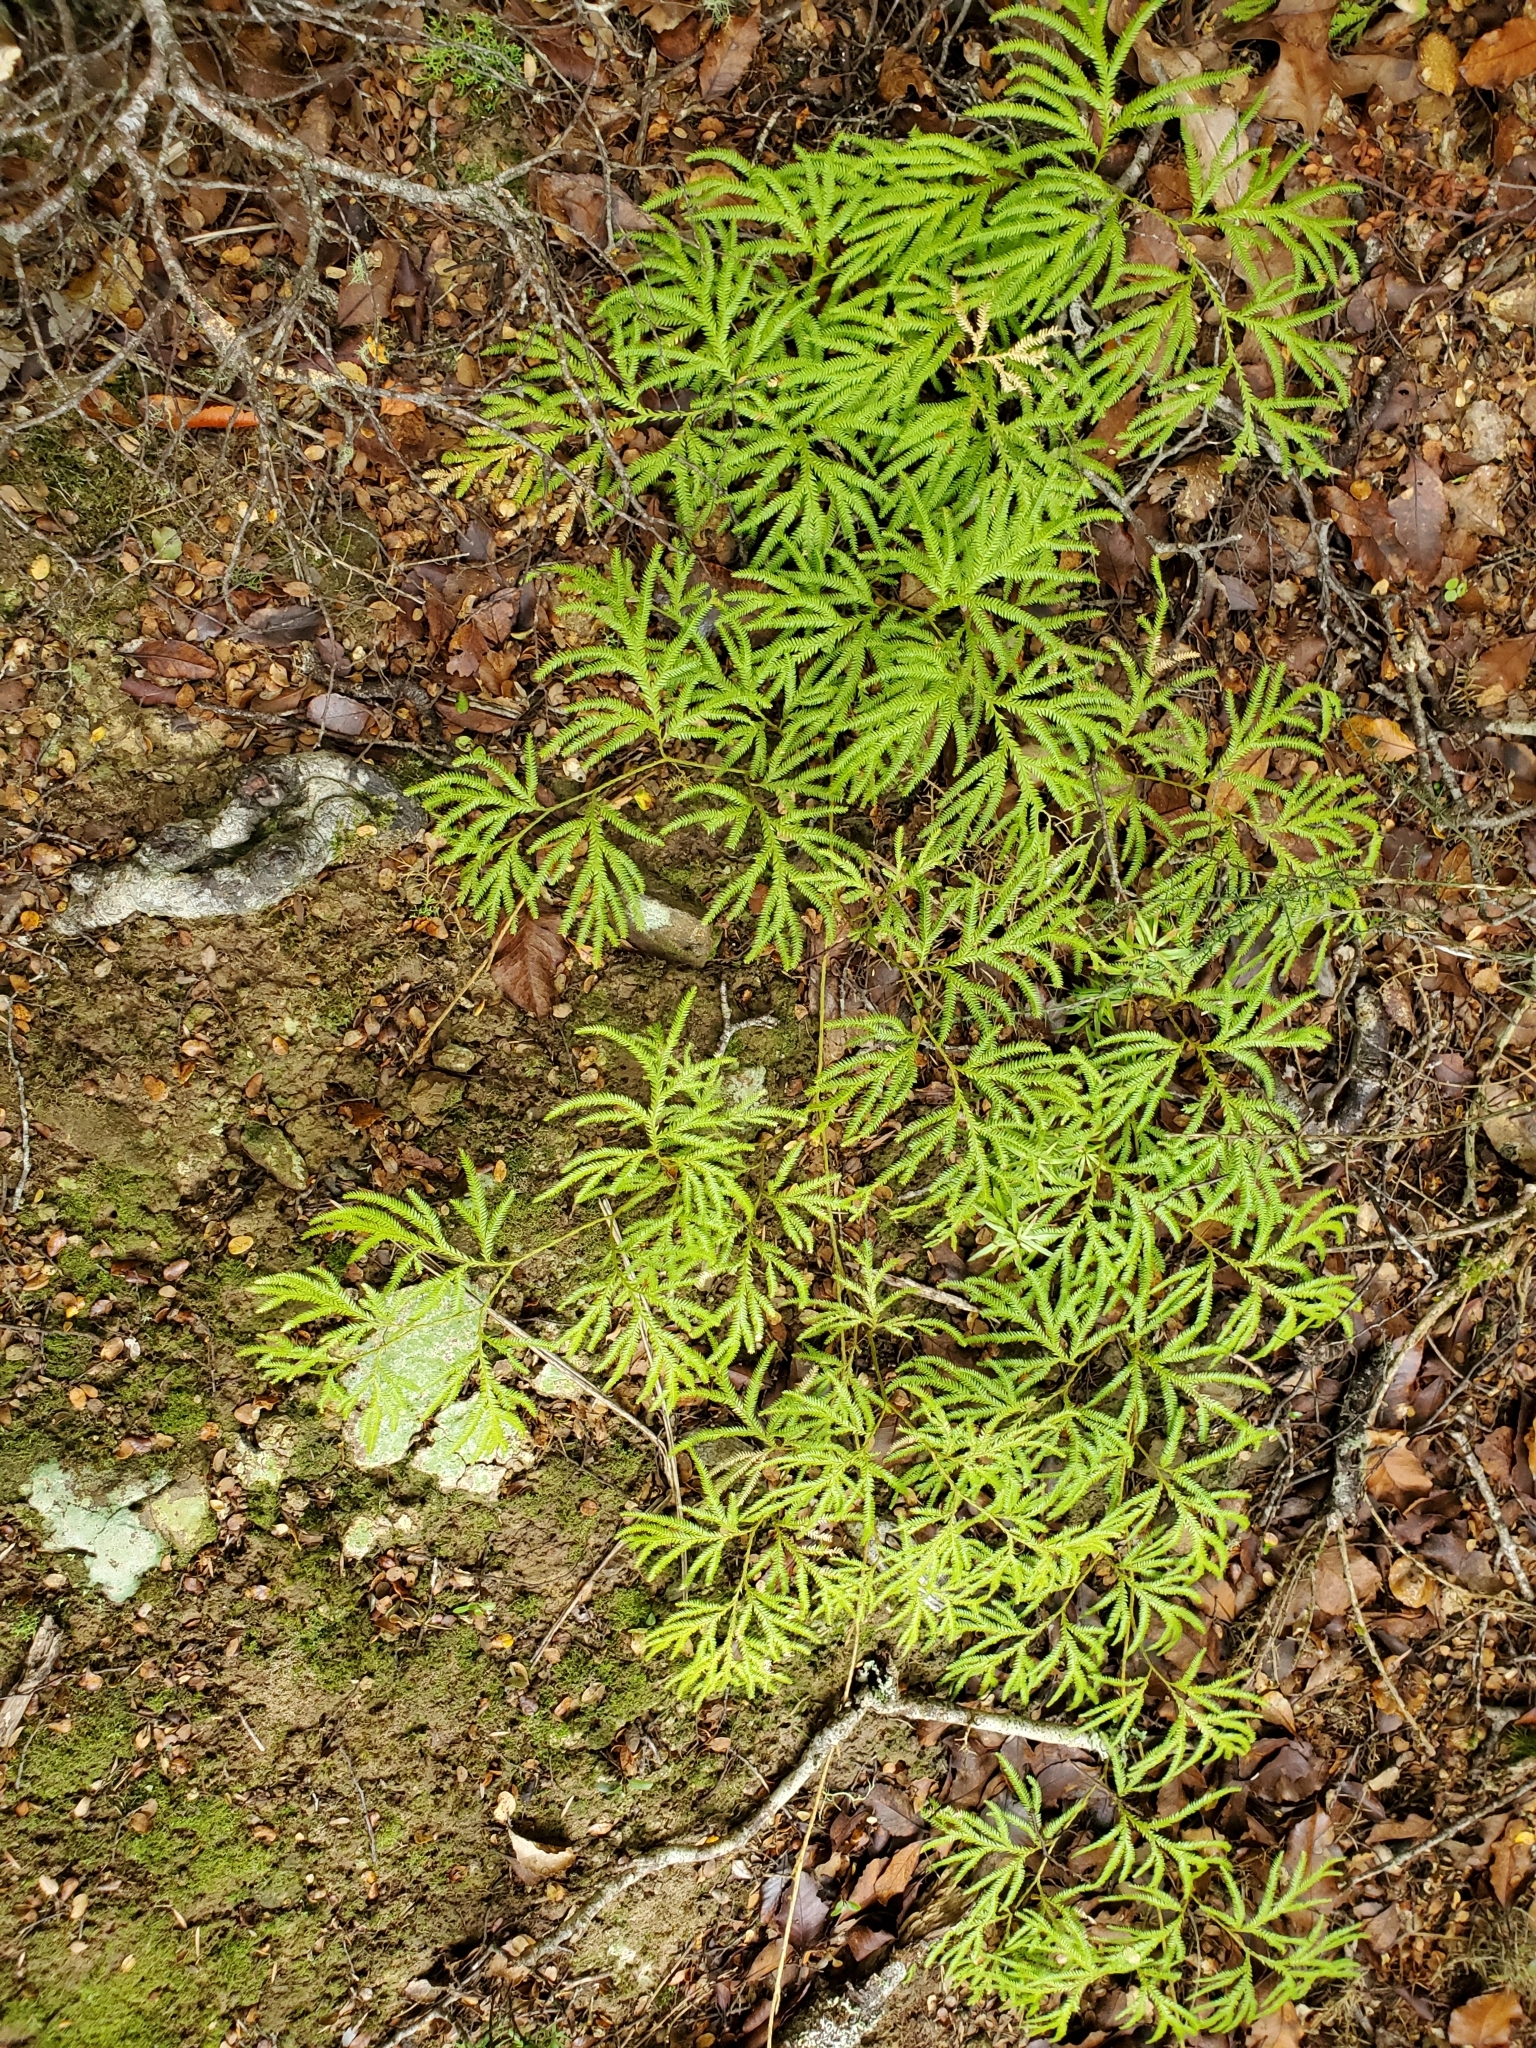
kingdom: Plantae
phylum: Tracheophyta
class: Lycopodiopsida
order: Lycopodiales
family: Lycopodiaceae
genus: Lycopodium
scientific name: Lycopodium volubile
